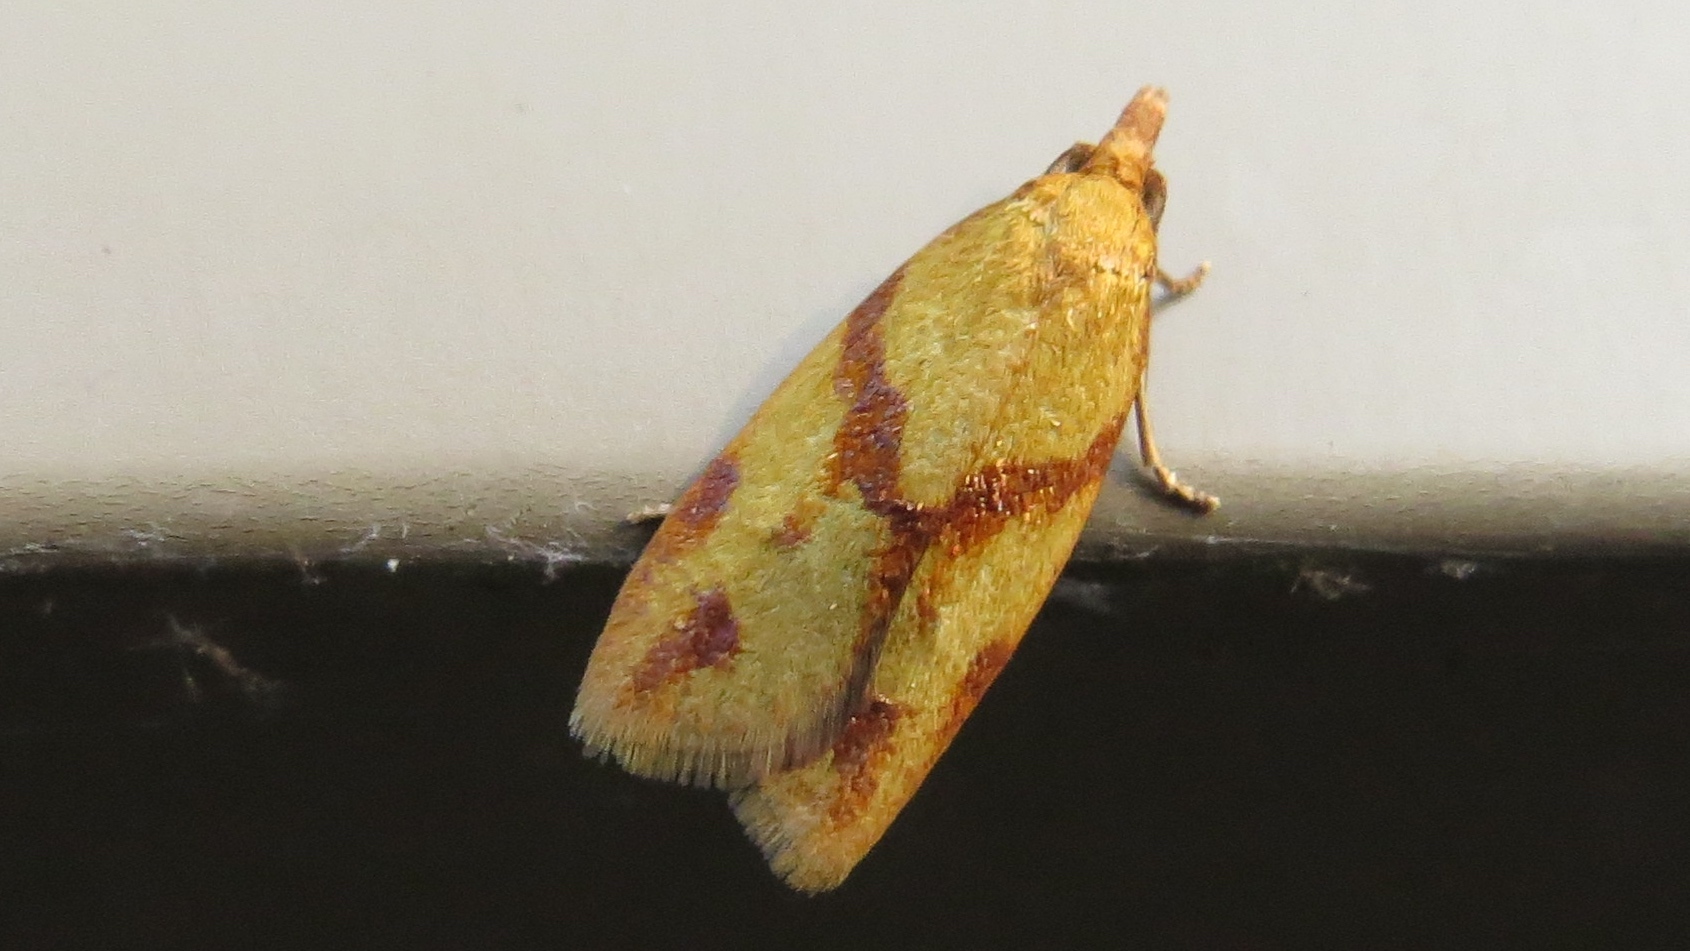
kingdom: Animalia
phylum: Arthropoda
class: Insecta
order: Lepidoptera
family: Tortricidae
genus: Sparganothis
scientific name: Sparganothis unifasciana
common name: One-lined sparganothis moth
